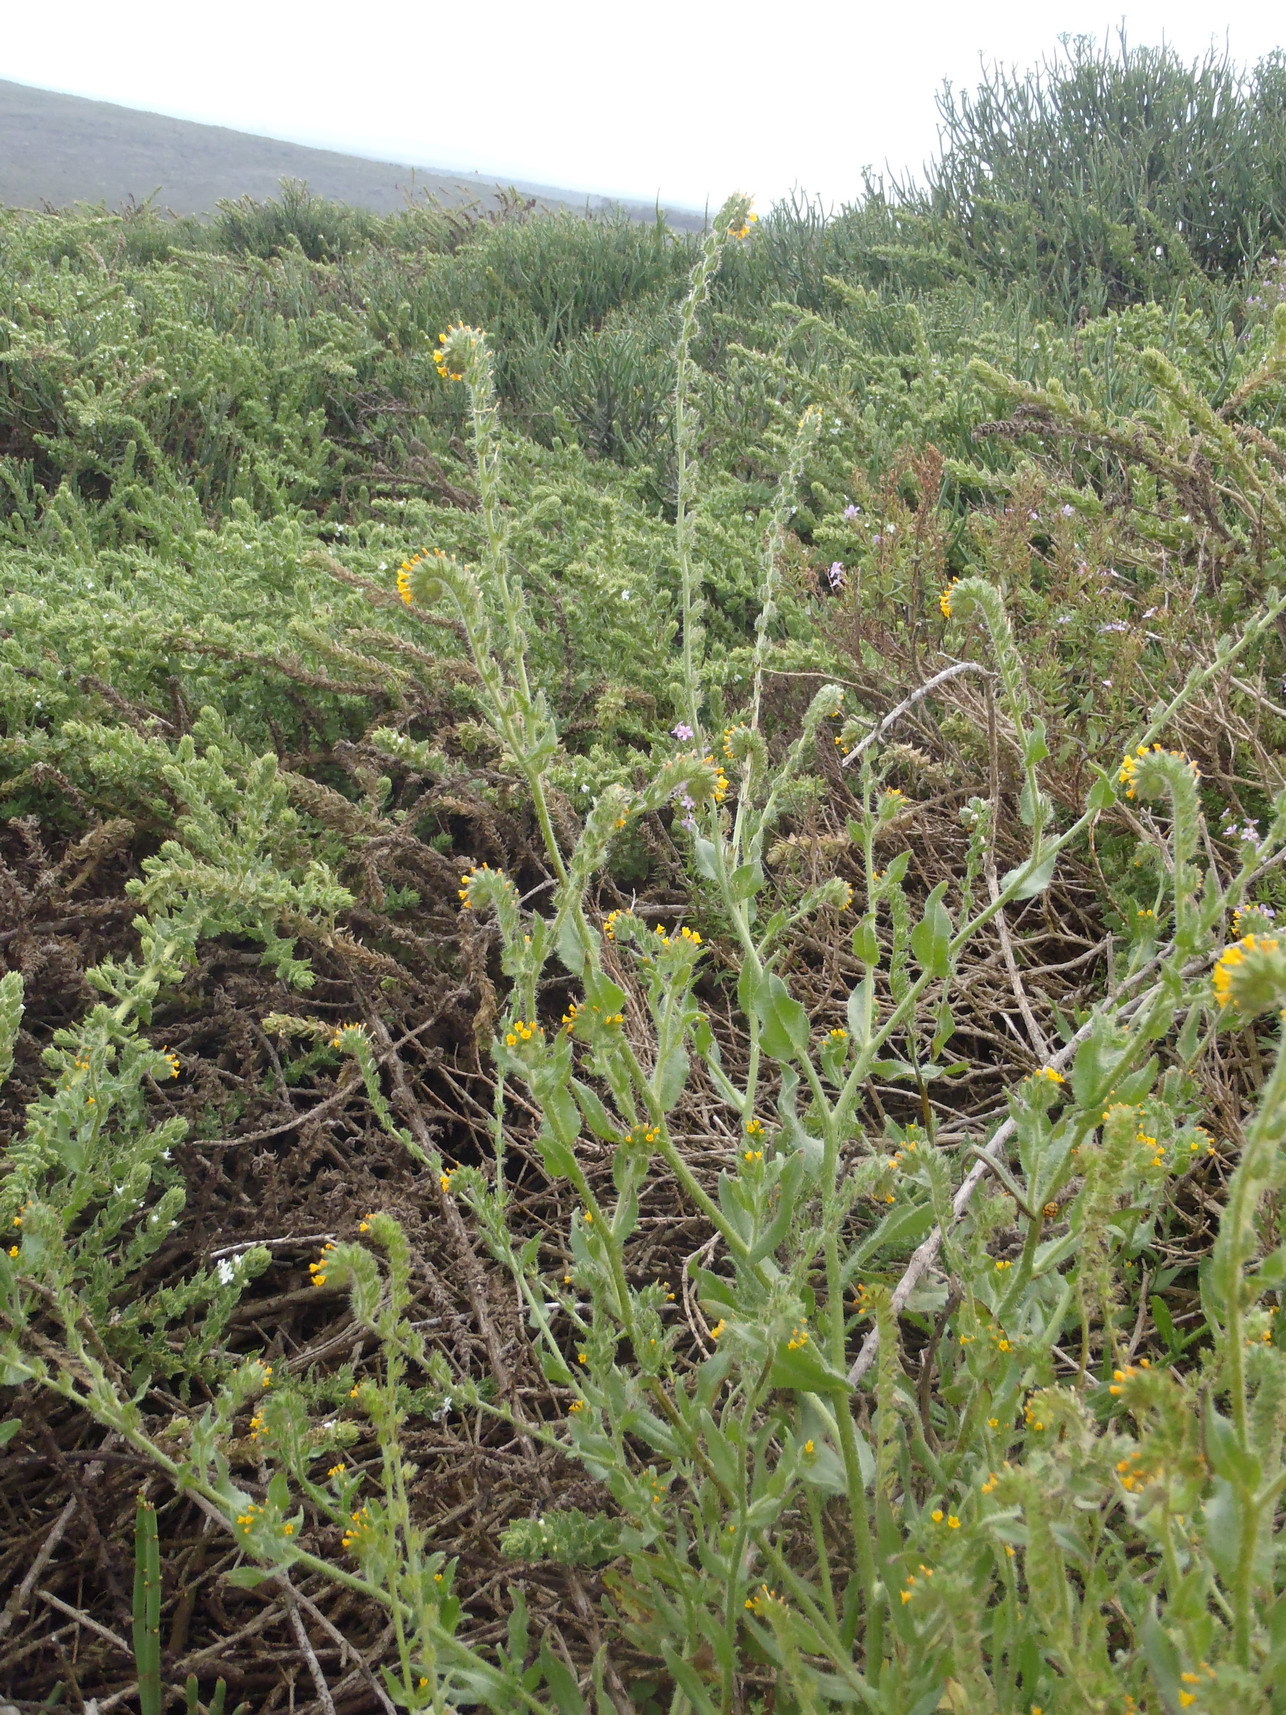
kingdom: Plantae
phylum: Tracheophyta
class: Magnoliopsida
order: Boraginales
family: Boraginaceae
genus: Amsinckia
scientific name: Amsinckia menziesii
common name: Menzies' fiddleneck
